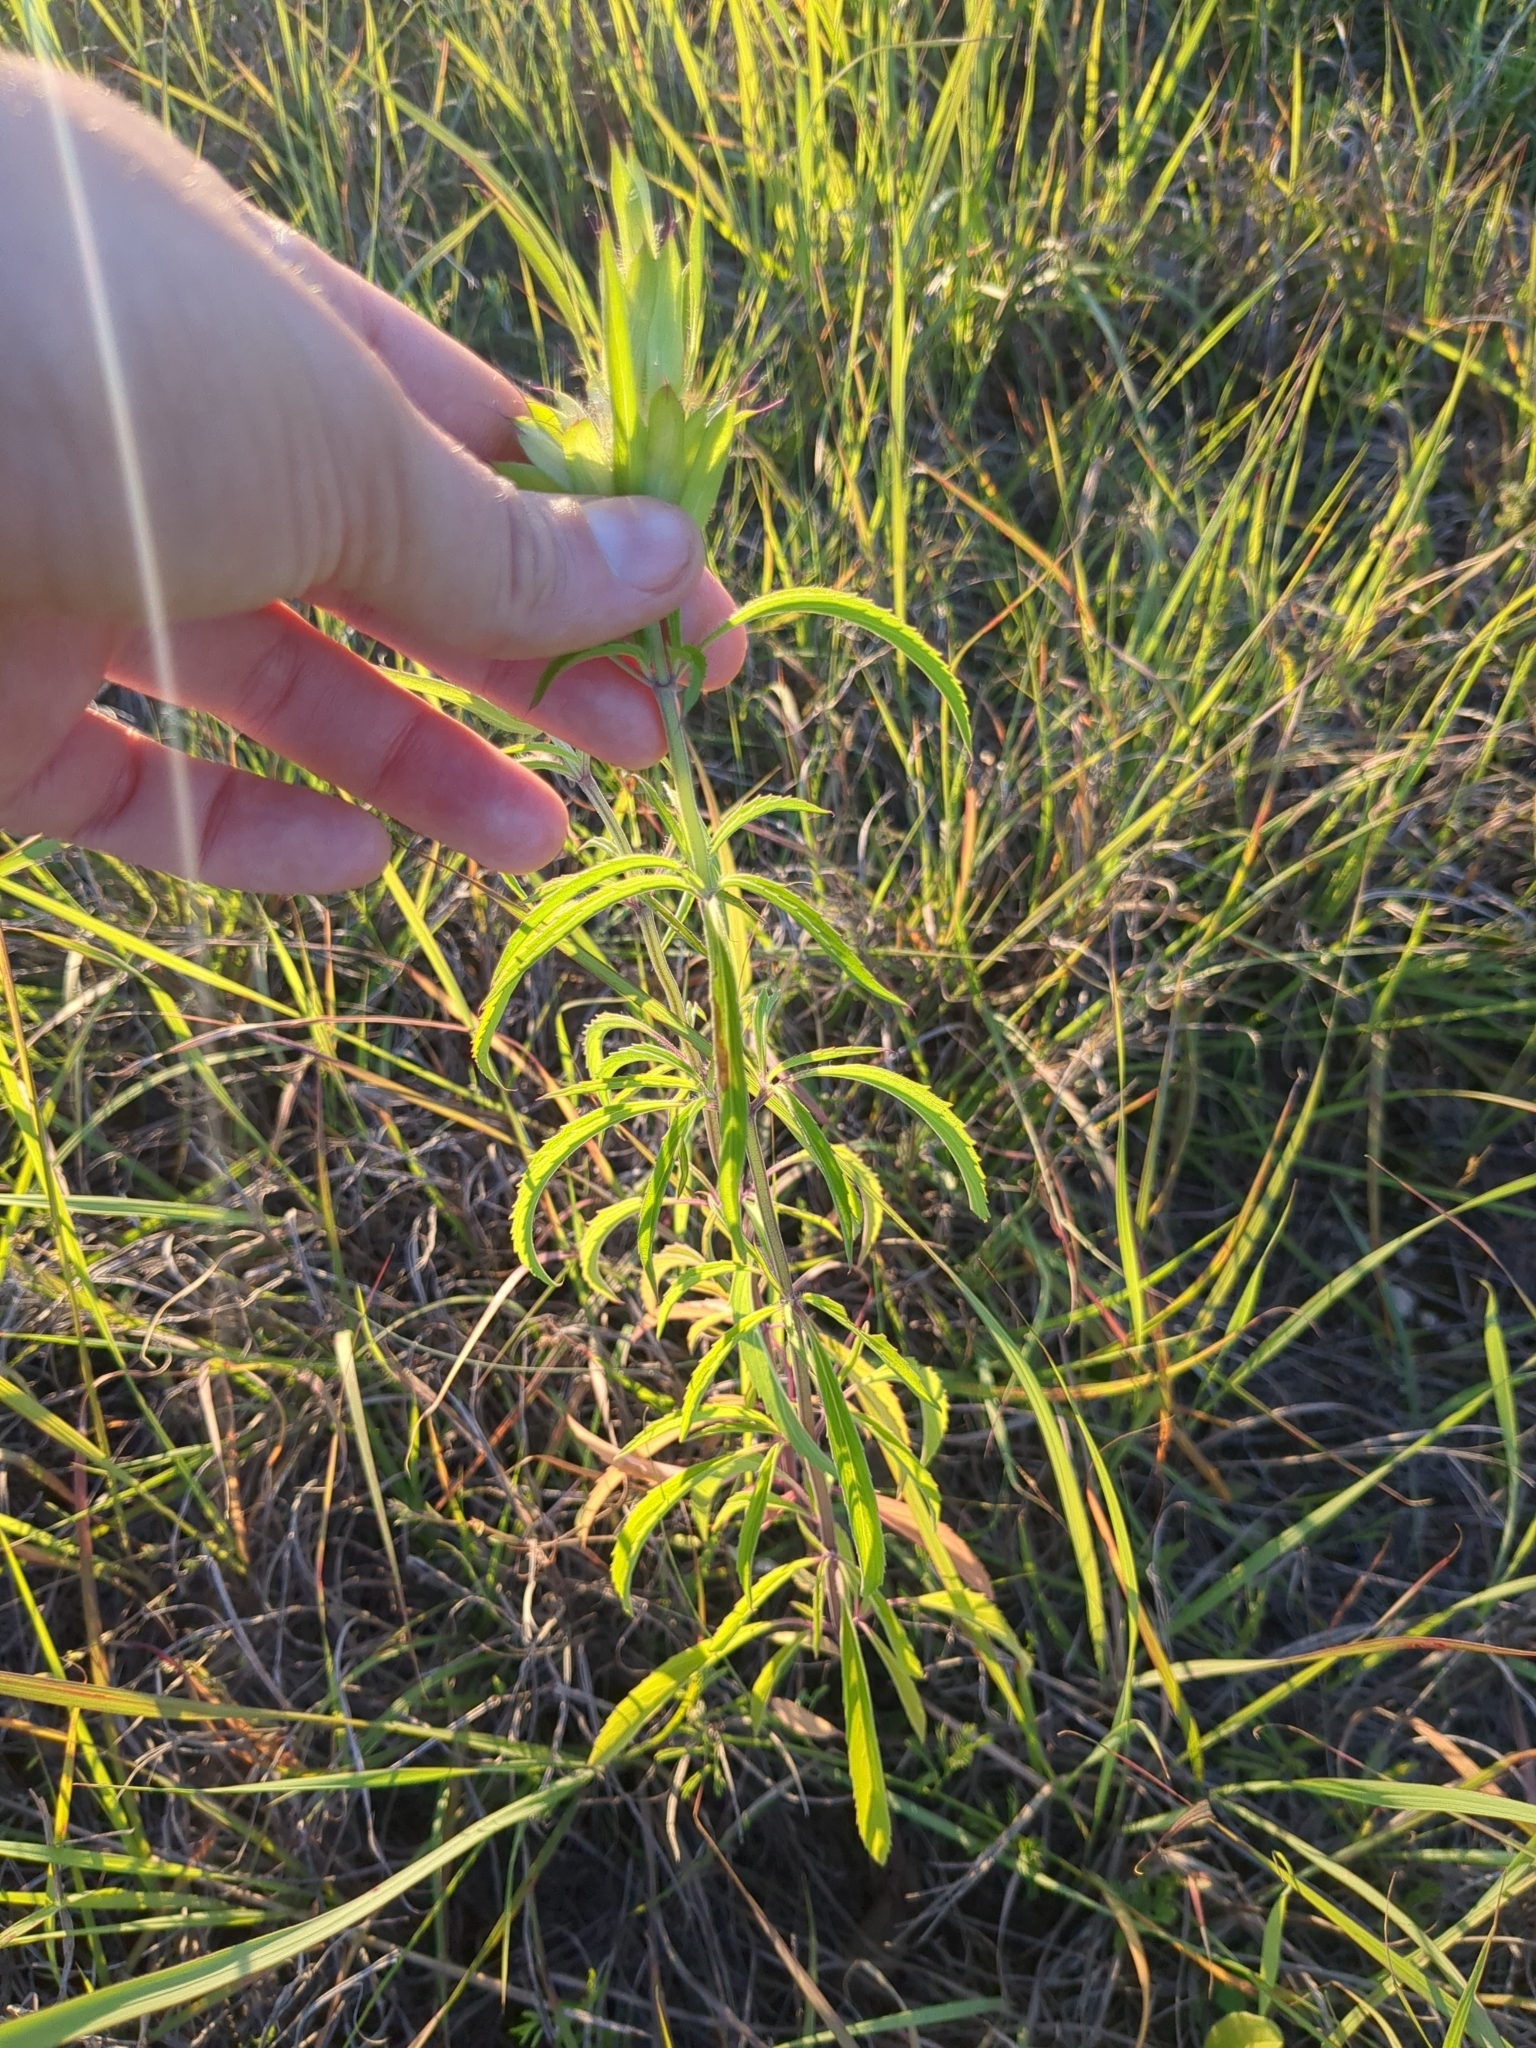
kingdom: Plantae
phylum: Tracheophyta
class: Magnoliopsida
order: Lamiales
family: Lamiaceae
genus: Monarda
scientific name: Monarda citriodora
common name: Lemon beebalm
